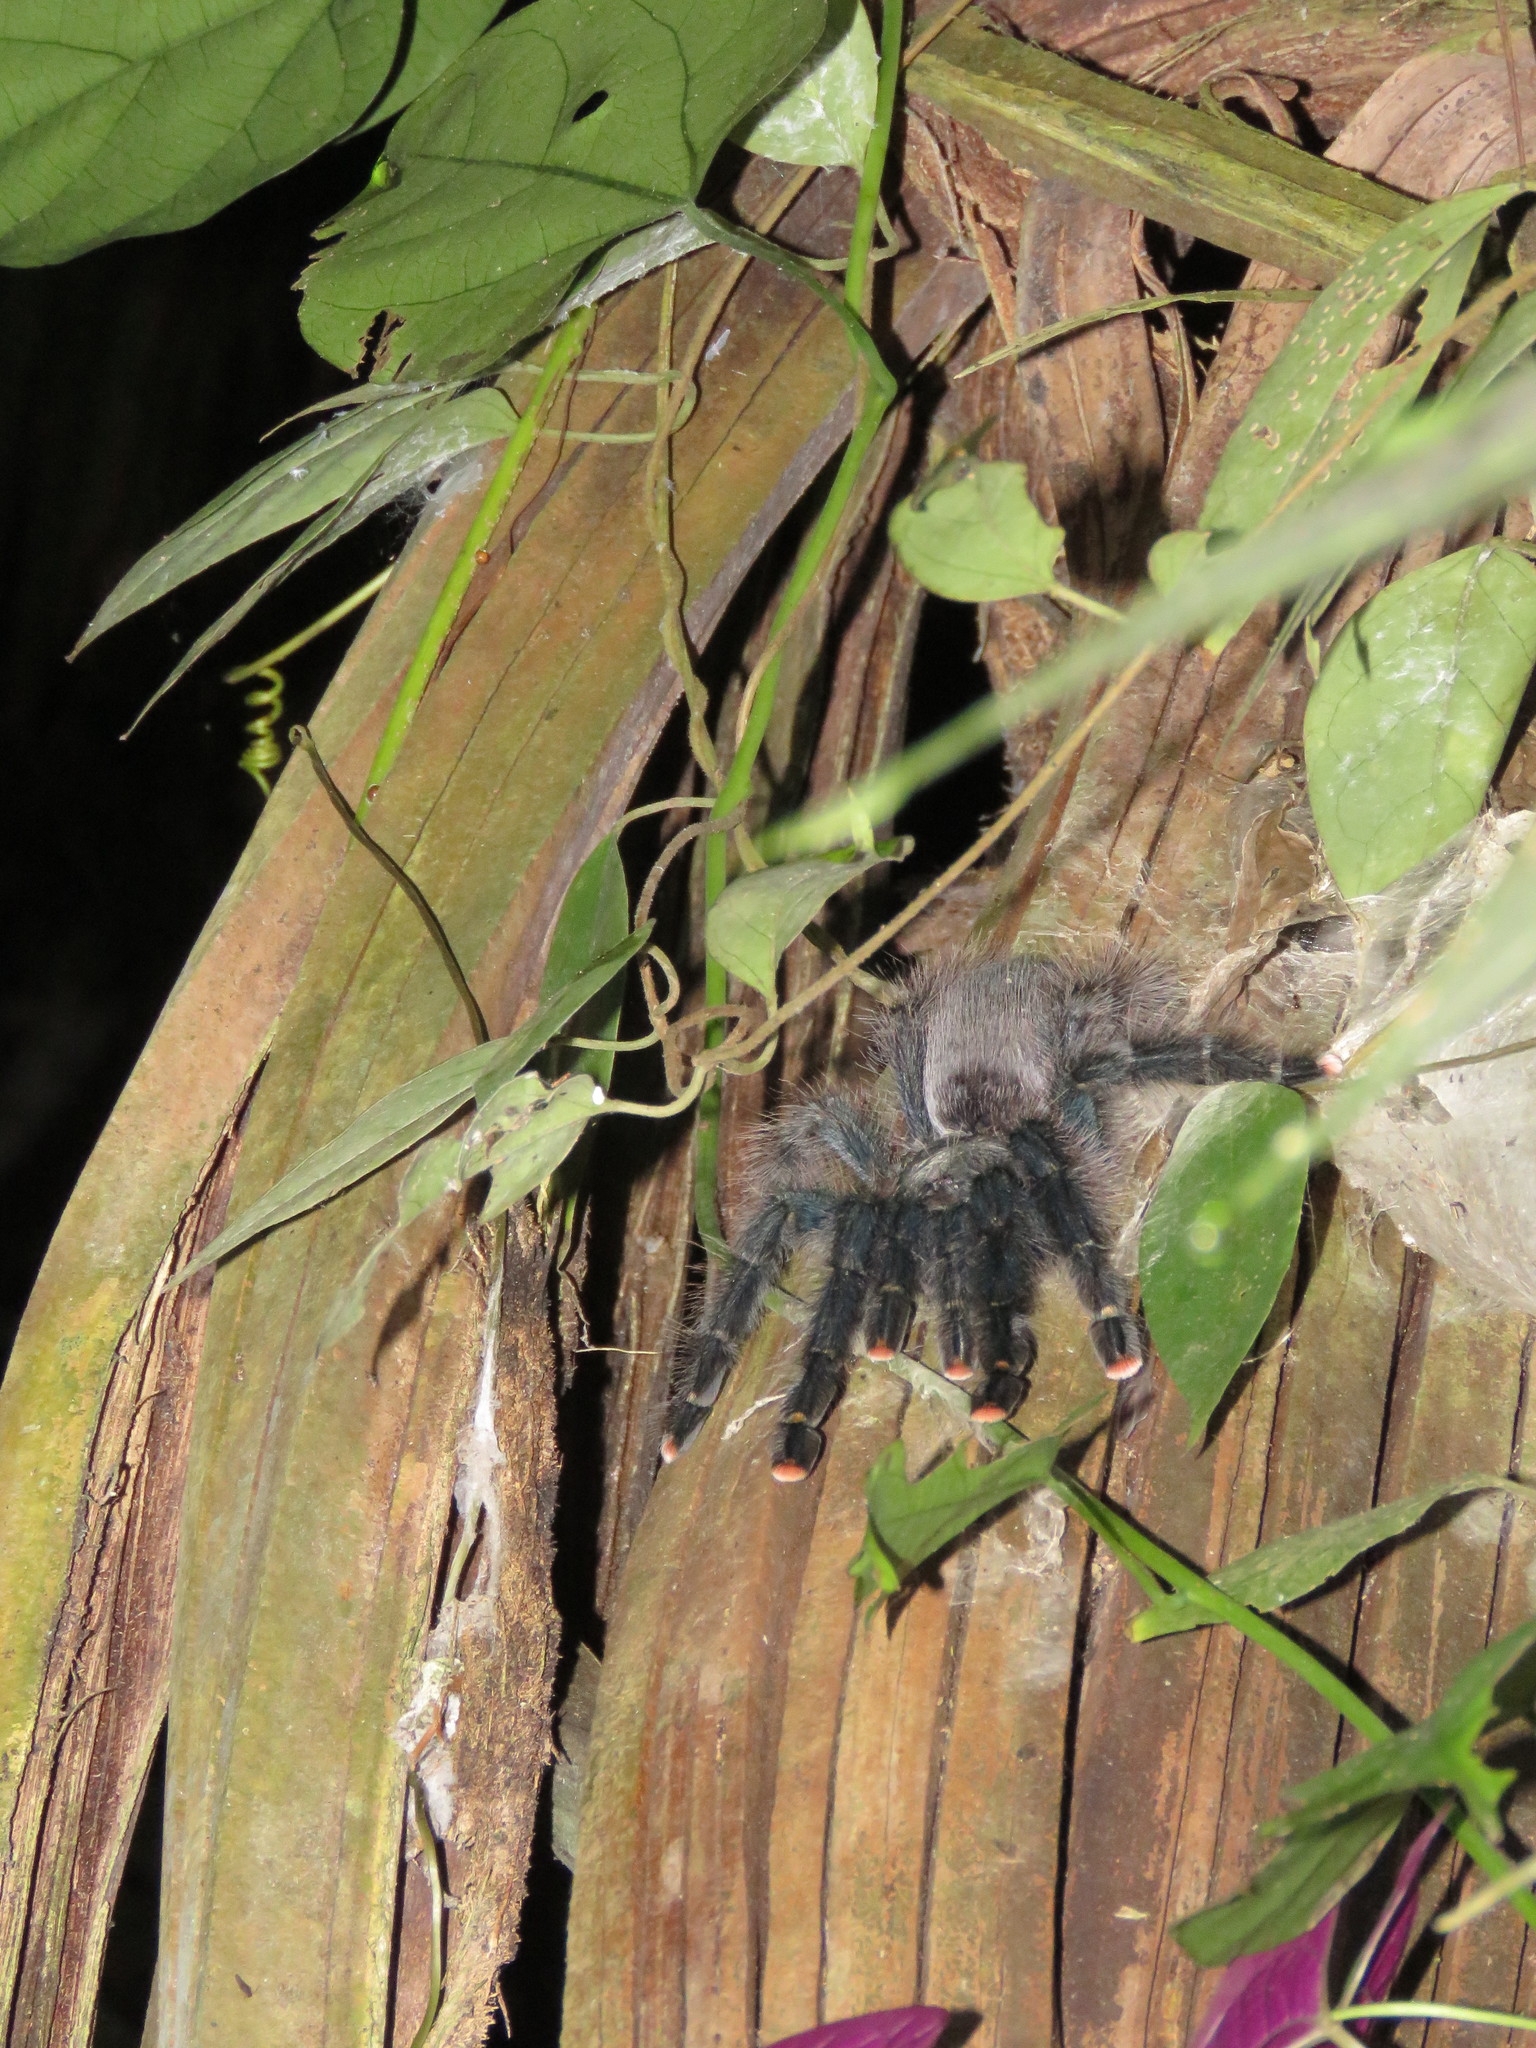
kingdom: Animalia
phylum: Arthropoda
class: Arachnida
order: Araneae
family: Theraphosidae
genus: Avicularia
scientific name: Avicularia avicularia
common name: Tarantula spiders
